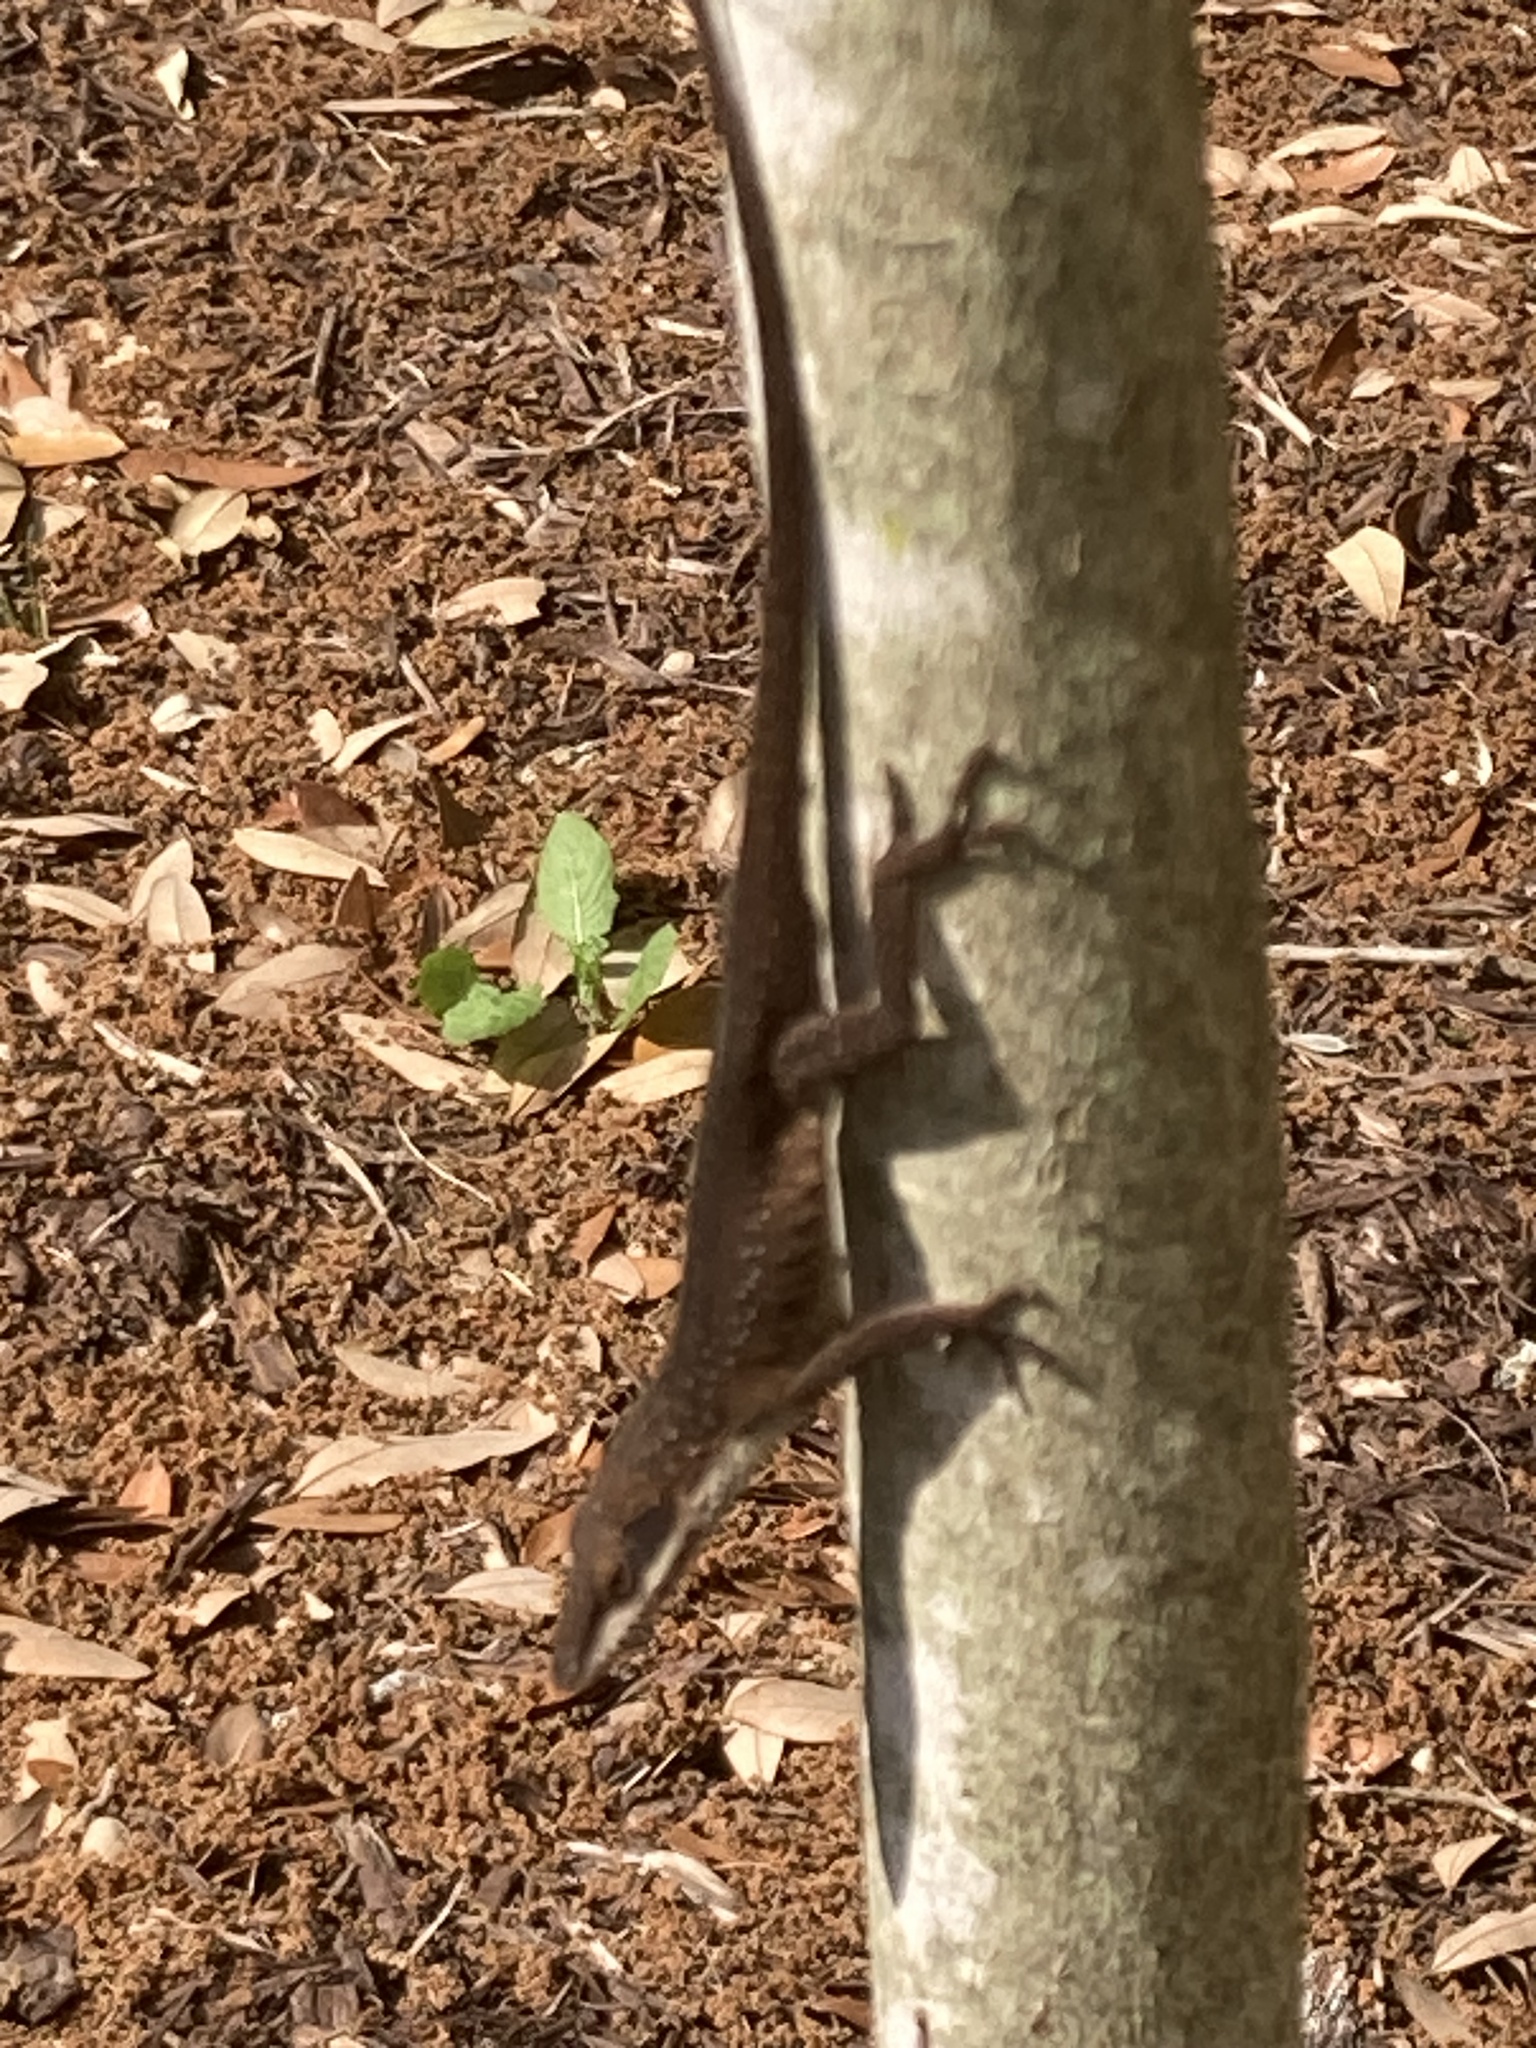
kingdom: Animalia
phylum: Chordata
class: Squamata
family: Dactyloidae
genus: Anolis
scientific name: Anolis carolinensis
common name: Green anole
